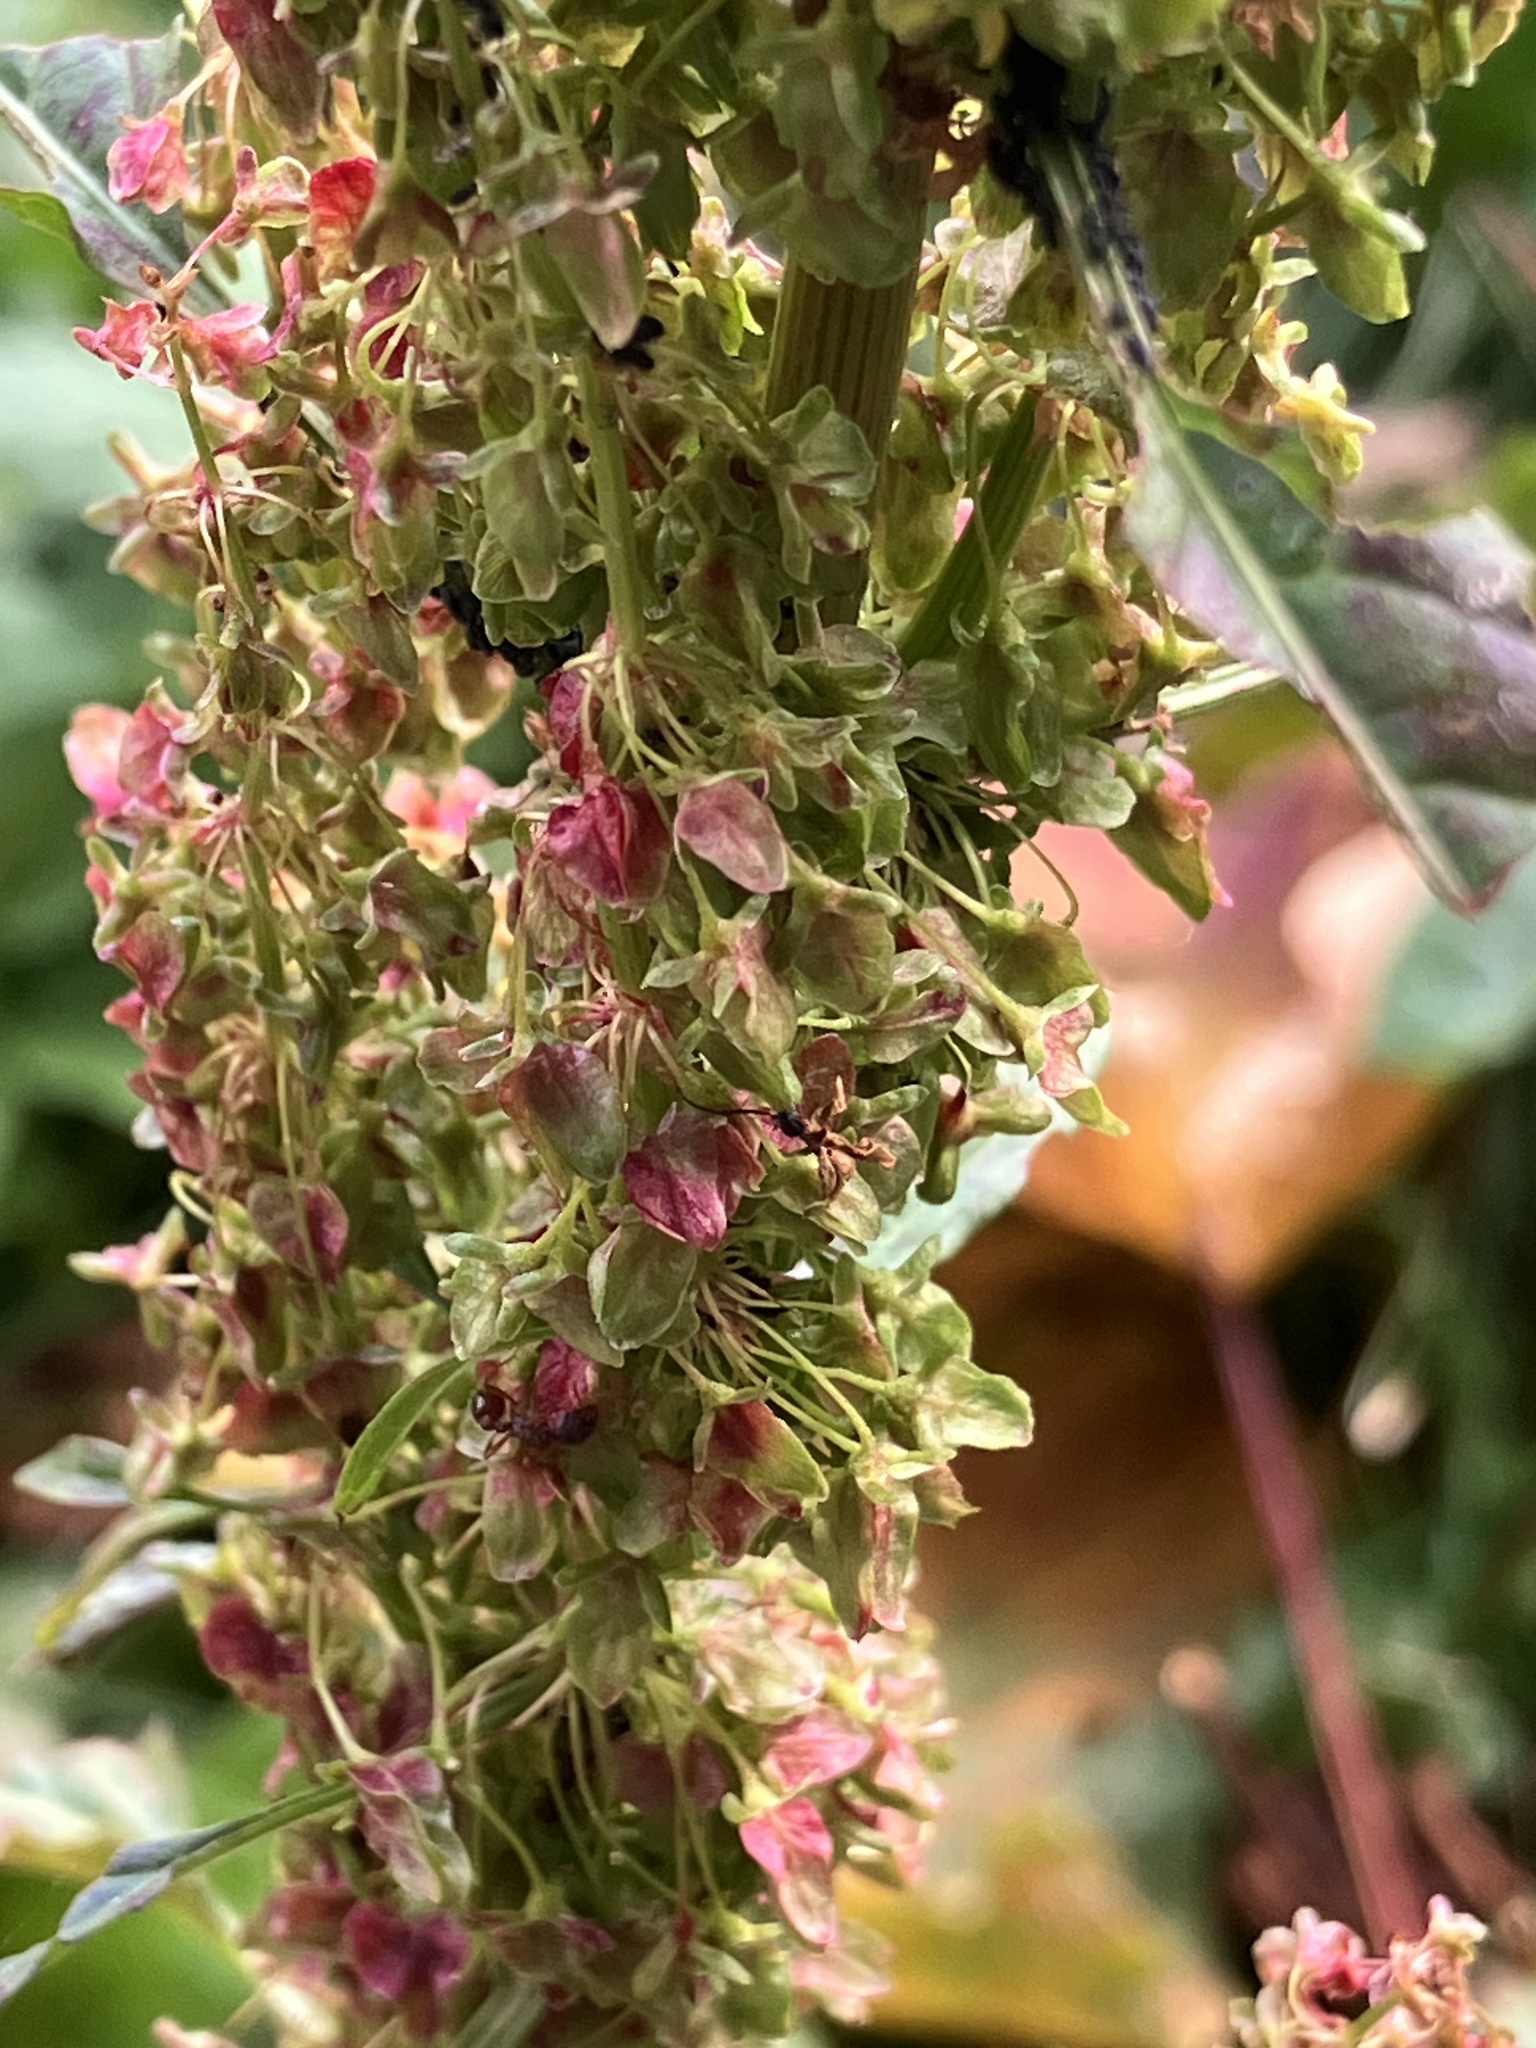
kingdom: Plantae
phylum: Tracheophyta
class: Magnoliopsida
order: Caryophyllales
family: Polygonaceae
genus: Rumex
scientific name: Rumex alpinus
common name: Alpine dock
